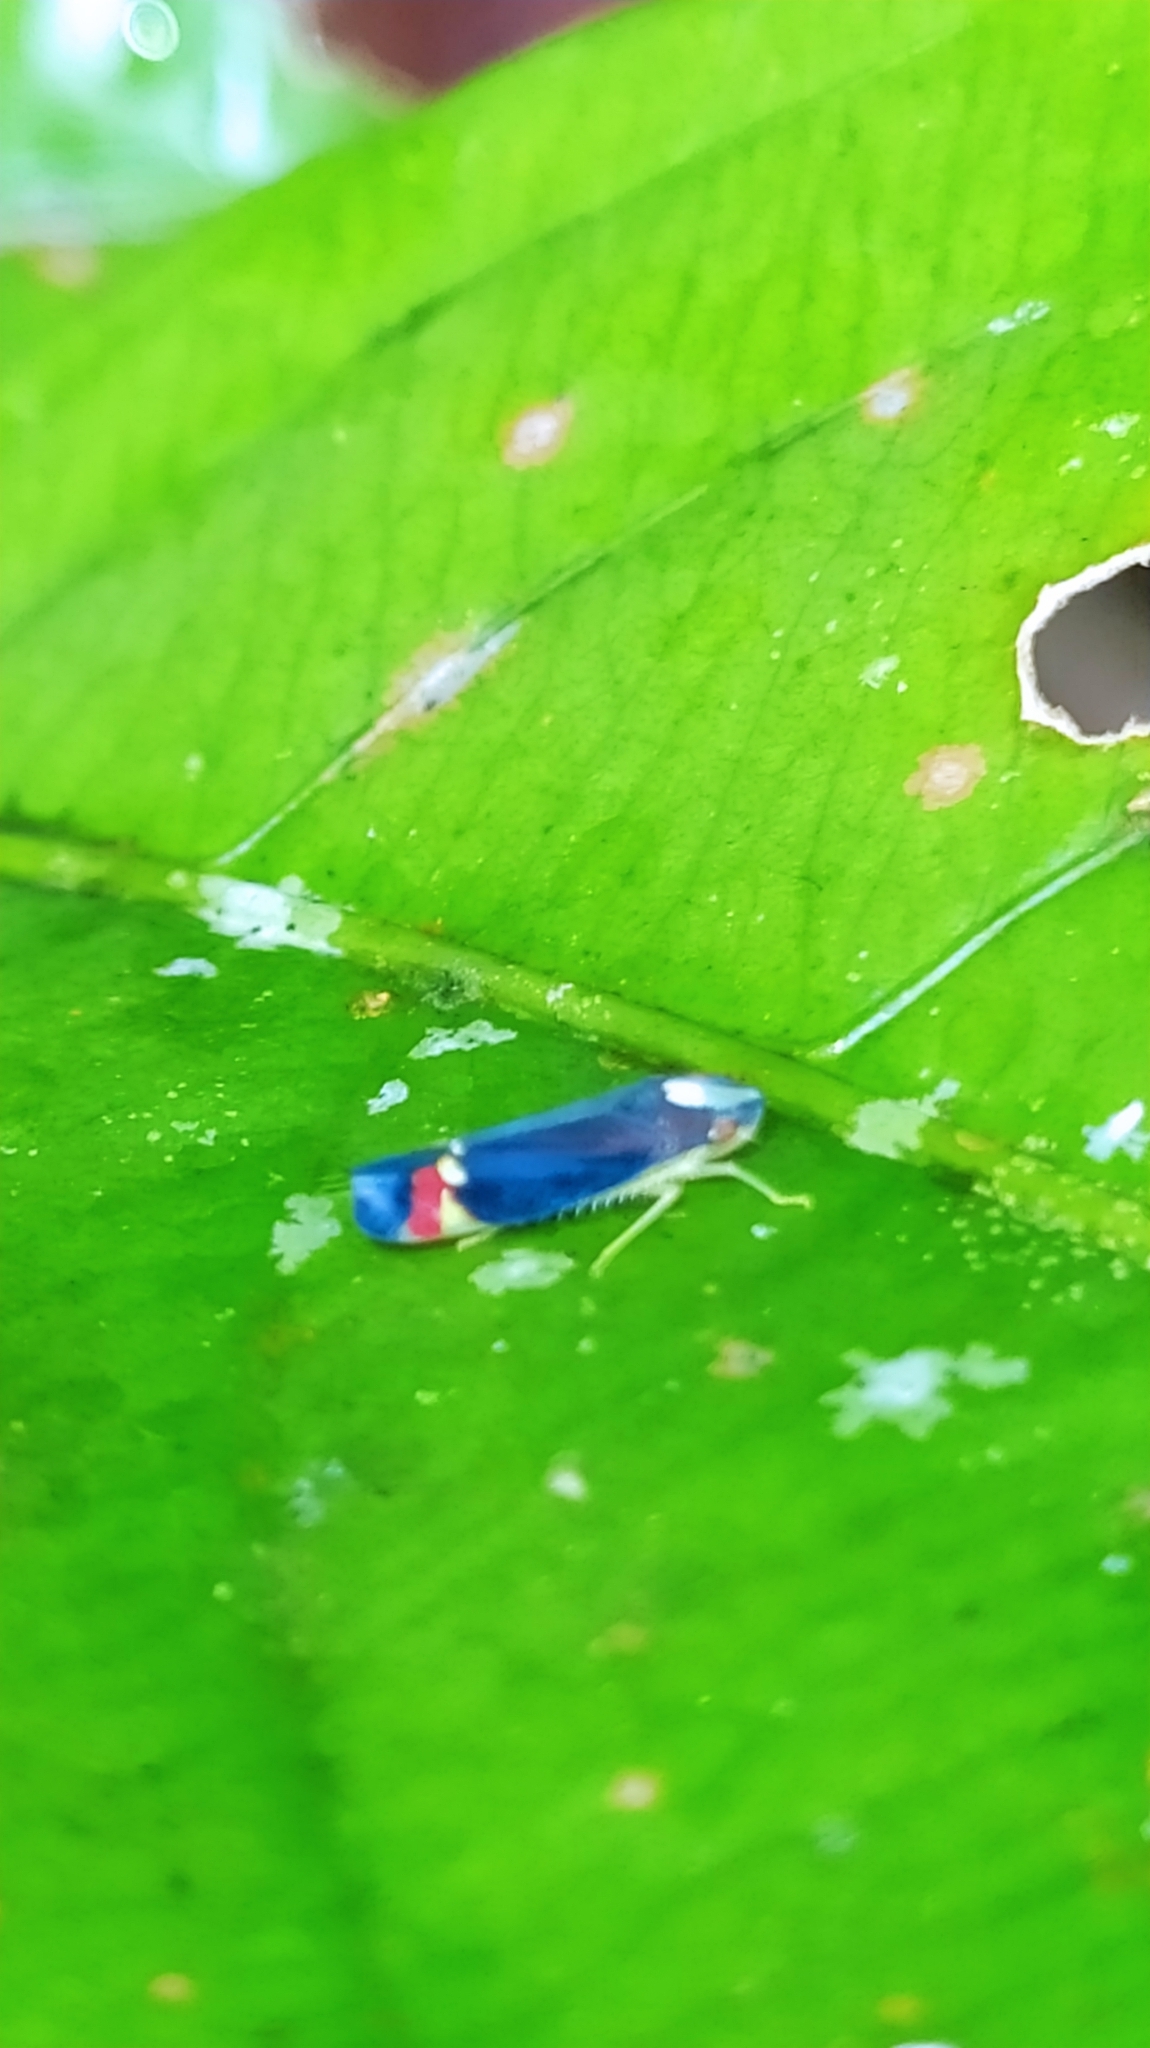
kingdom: Animalia
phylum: Arthropoda
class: Insecta
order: Hemiptera
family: Cicadellidae
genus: Erythrogonia
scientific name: Erythrogonia jumaca
